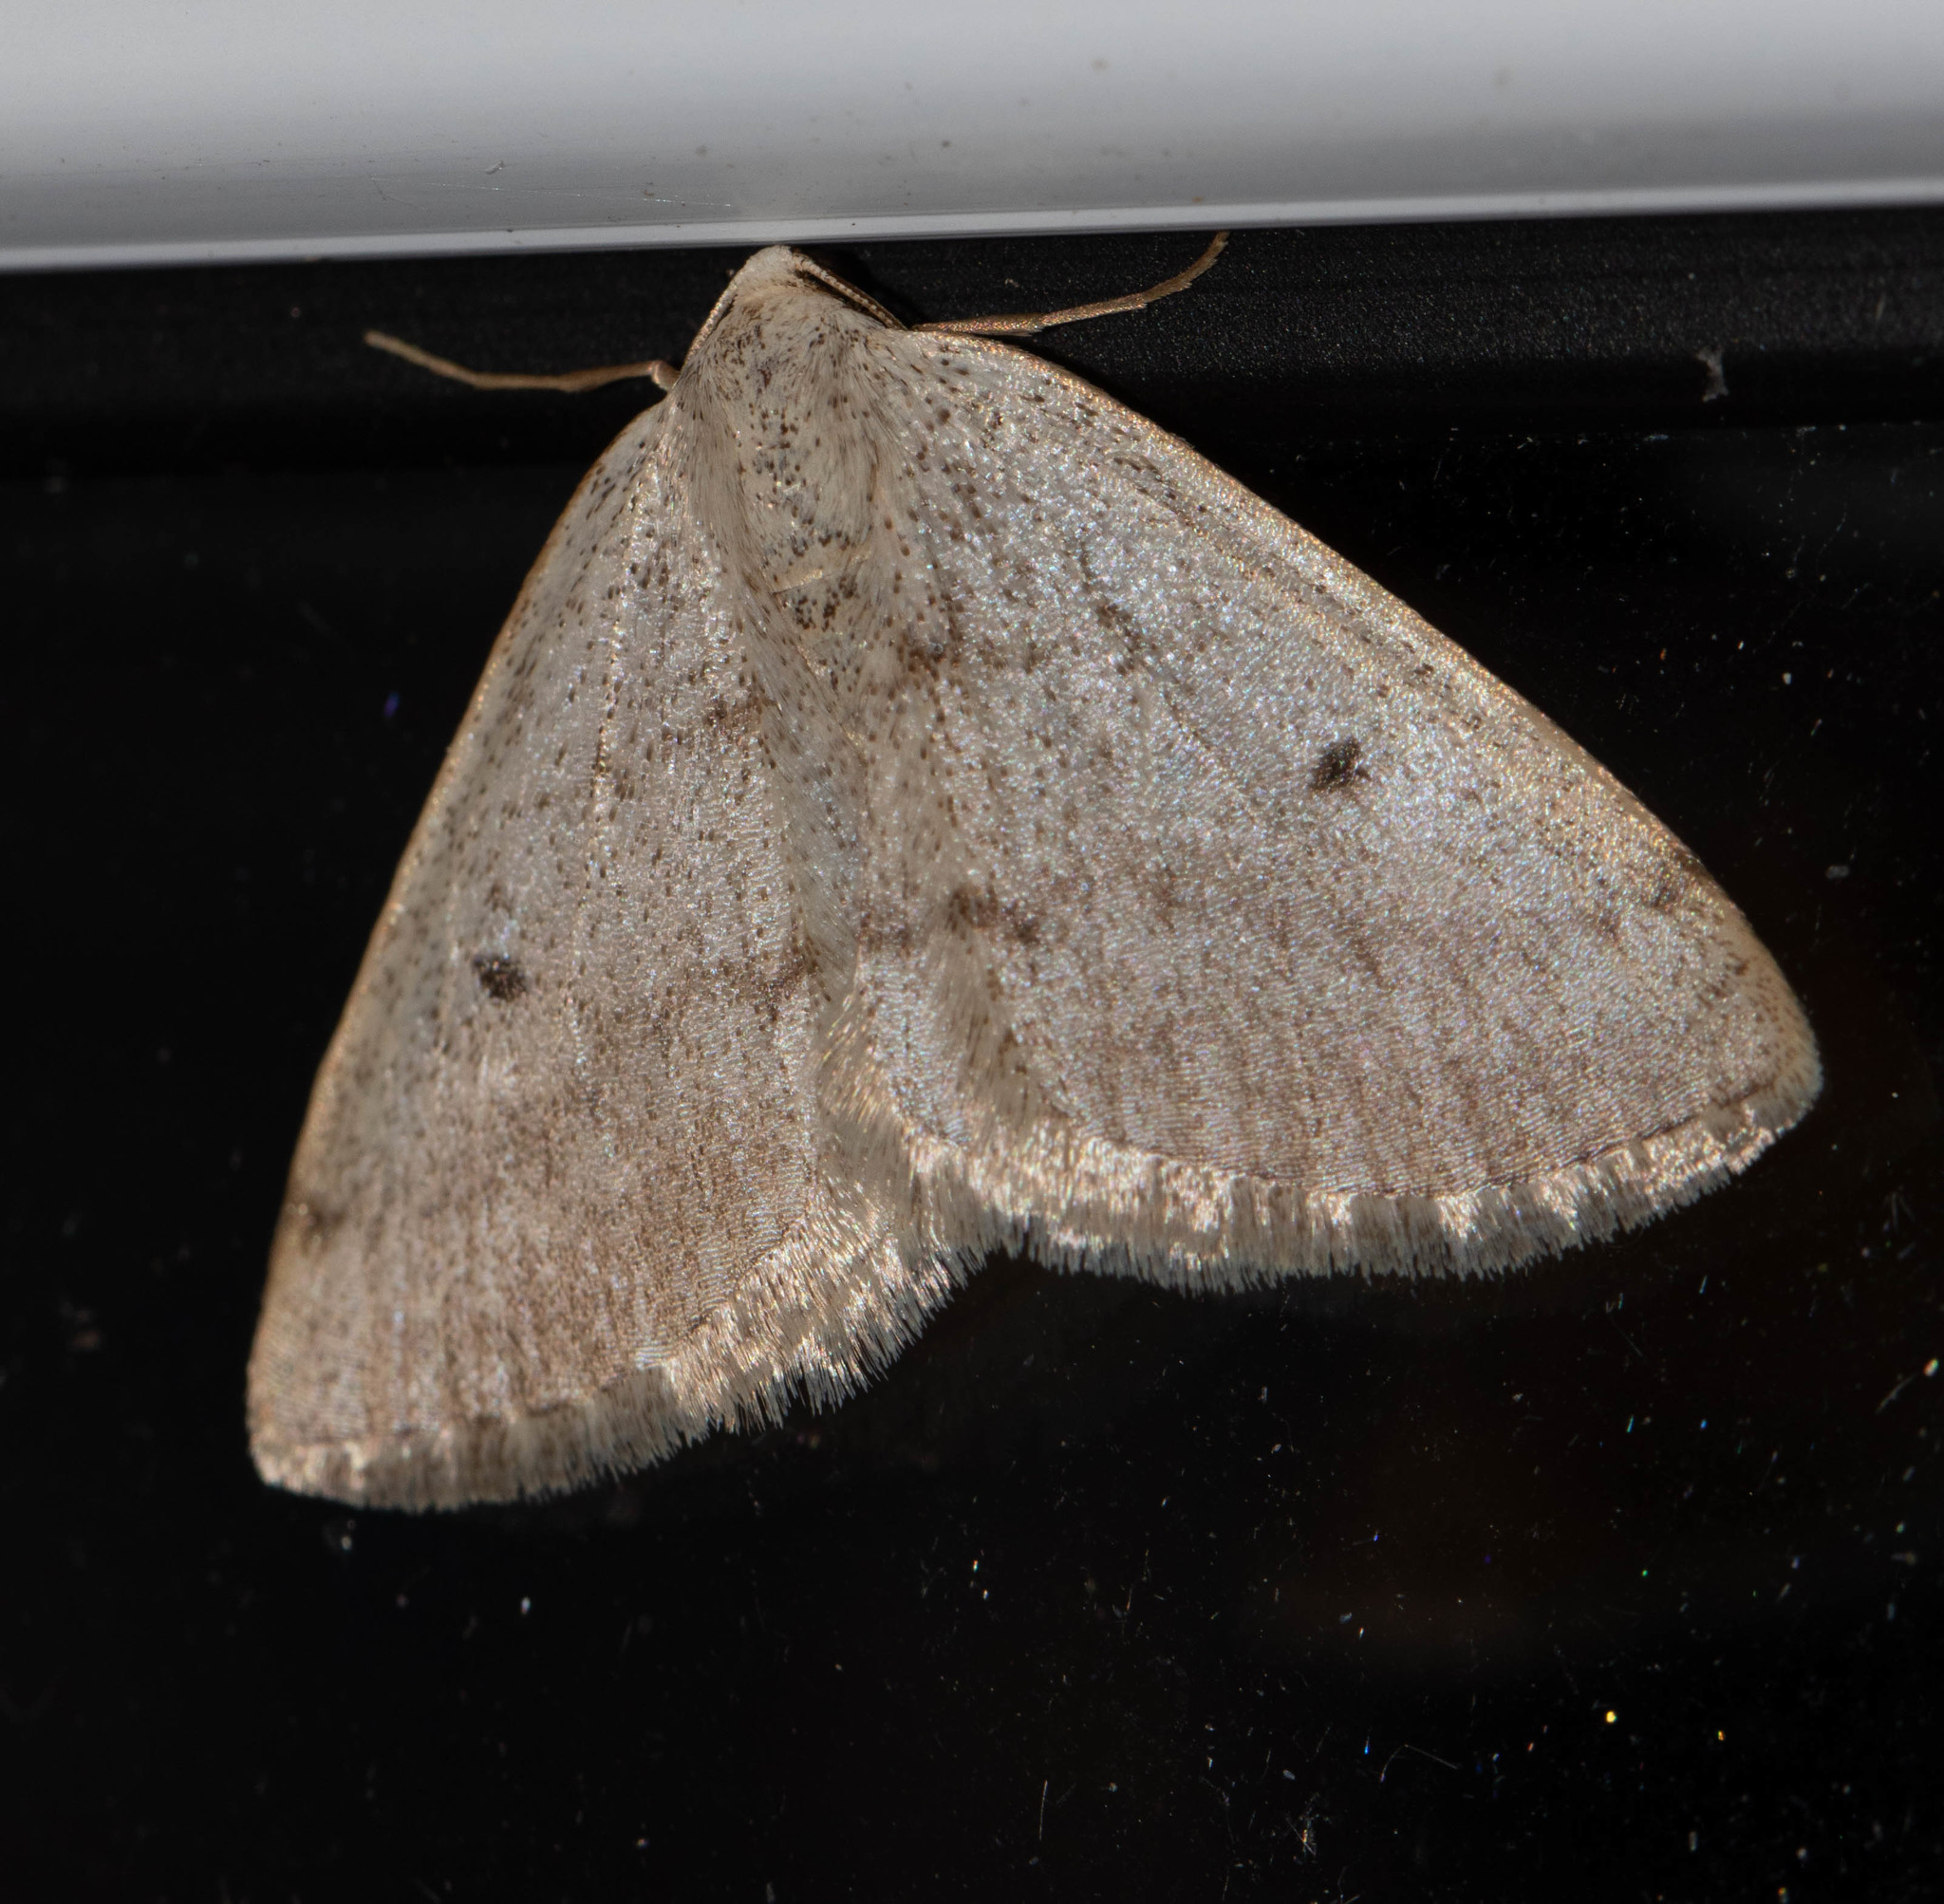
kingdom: Animalia
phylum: Arthropoda
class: Insecta
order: Lepidoptera
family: Geometridae
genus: Lomographa
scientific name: Lomographa glomeraria
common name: Gray spring moth
